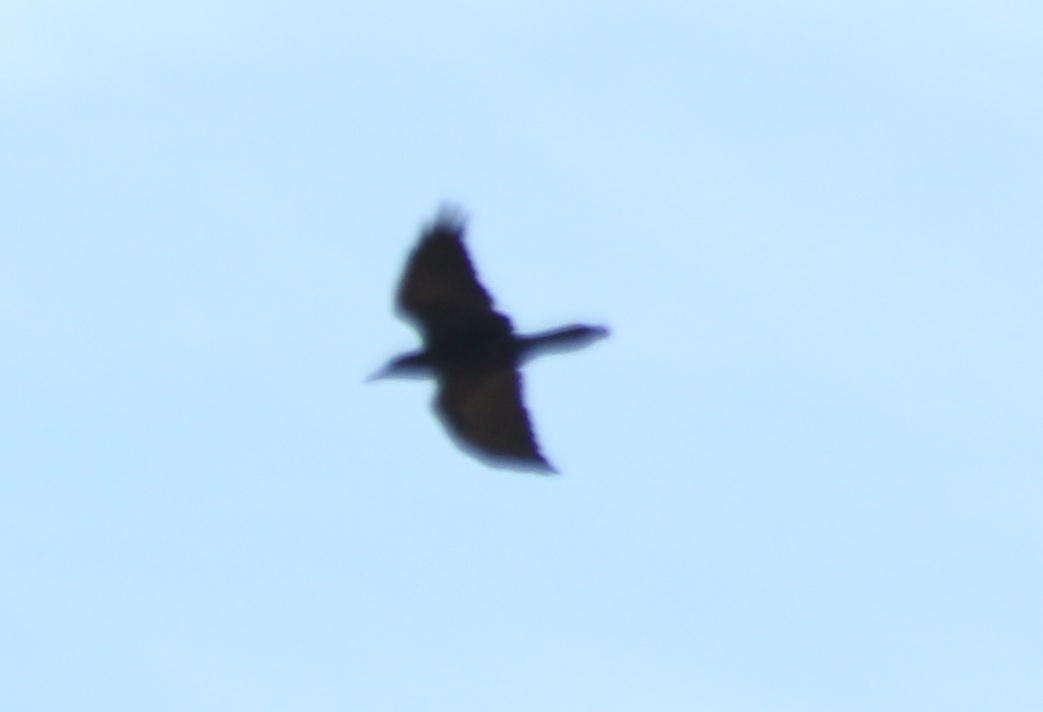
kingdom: Animalia
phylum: Chordata
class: Aves
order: Passeriformes
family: Corvidae
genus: Corvus
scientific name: Corvus corax
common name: Common raven
